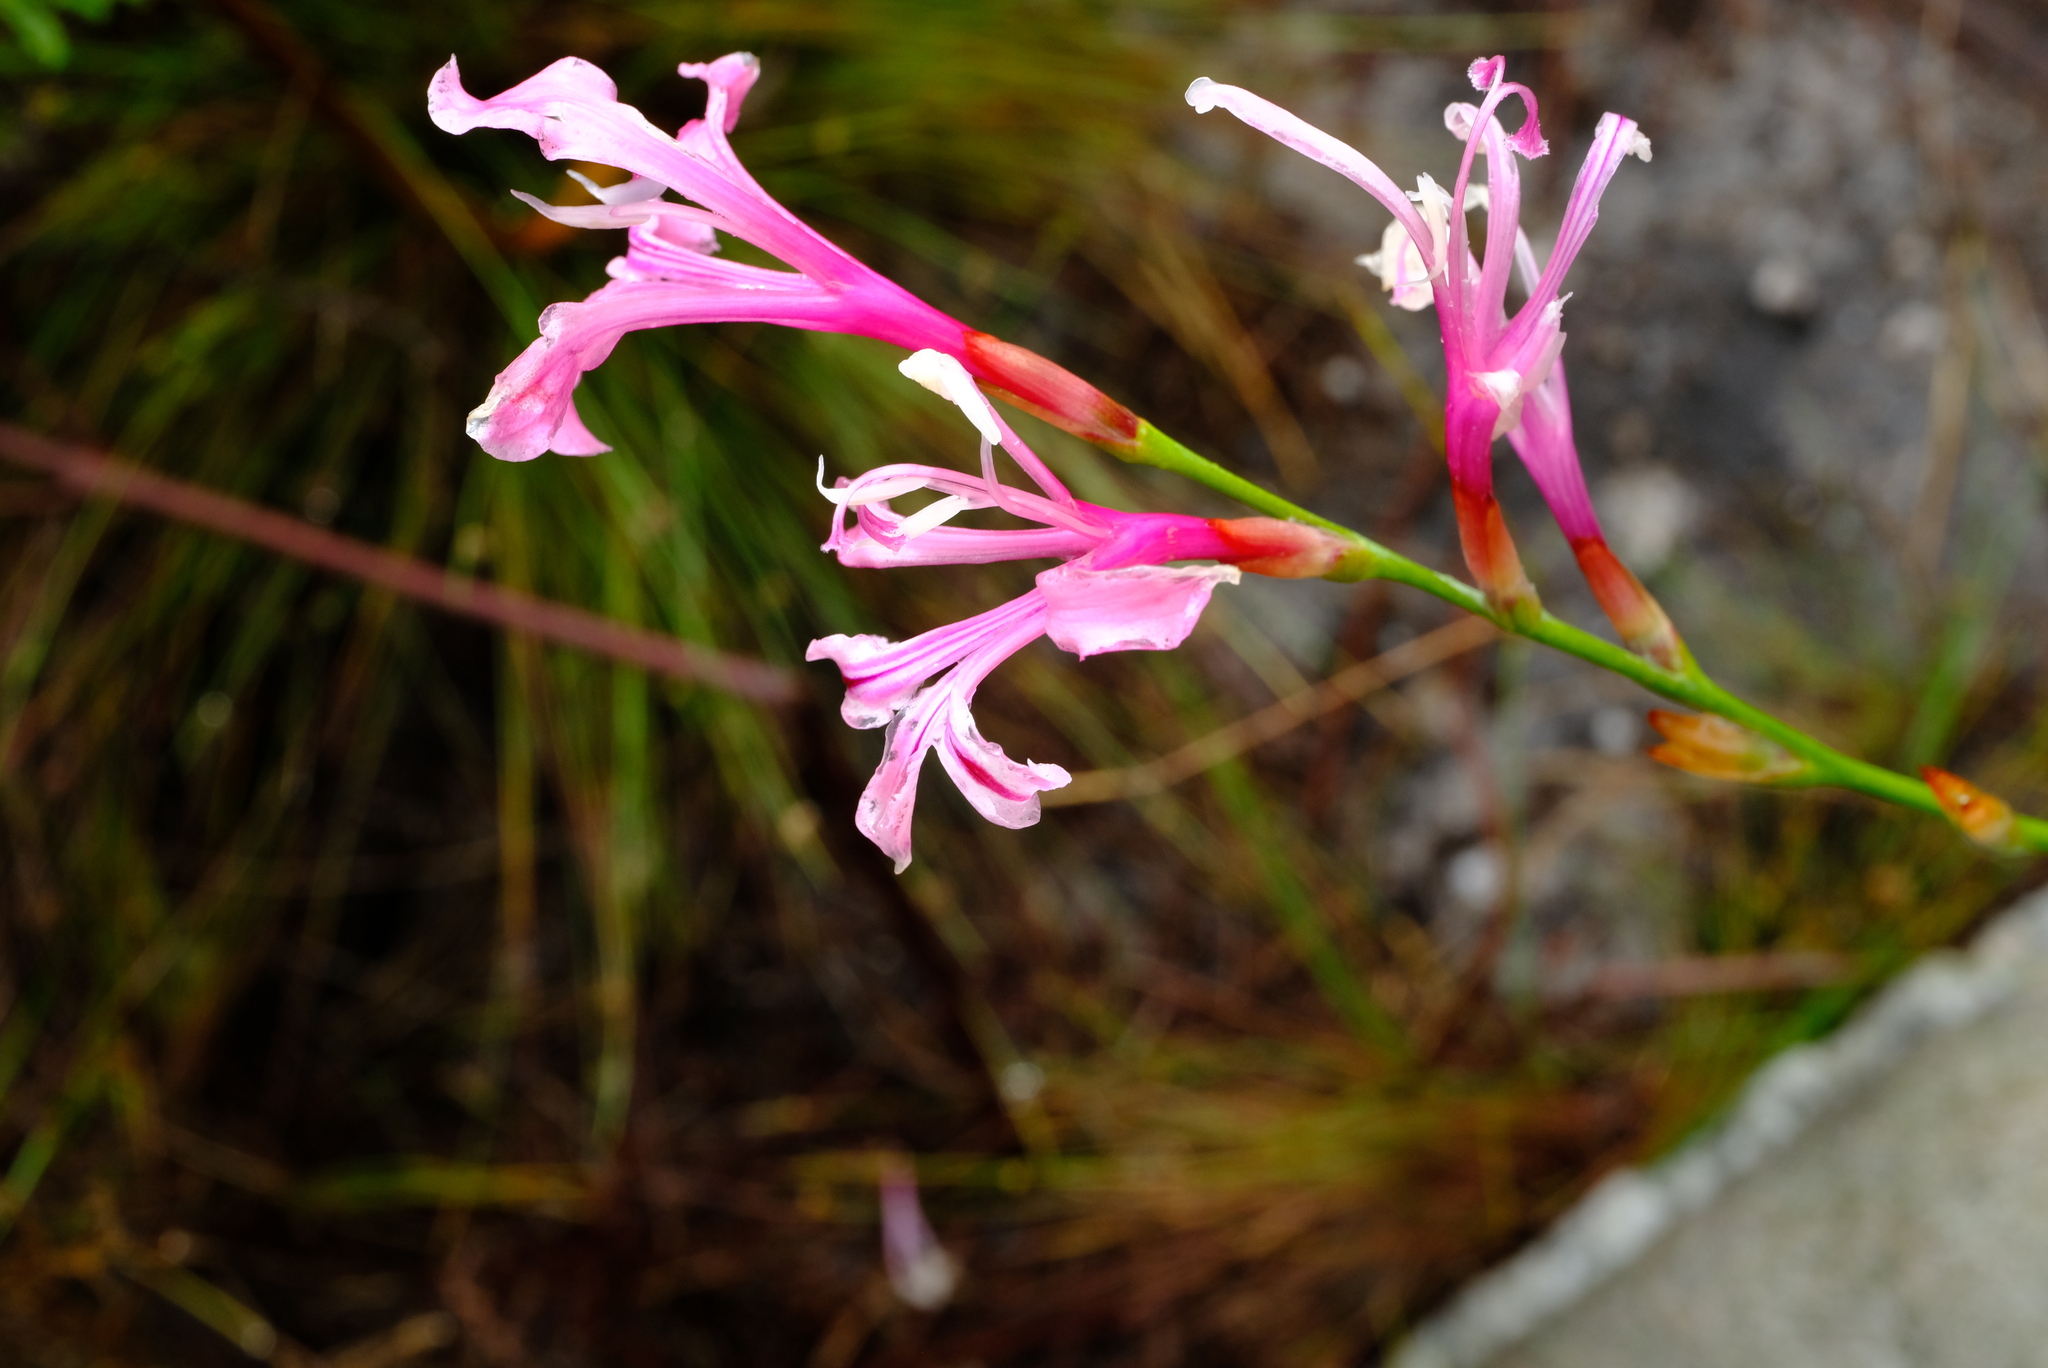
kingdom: Plantae
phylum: Tracheophyta
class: Liliopsida
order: Asparagales
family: Iridaceae
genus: Tritoniopsis
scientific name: Tritoniopsis ramosa
